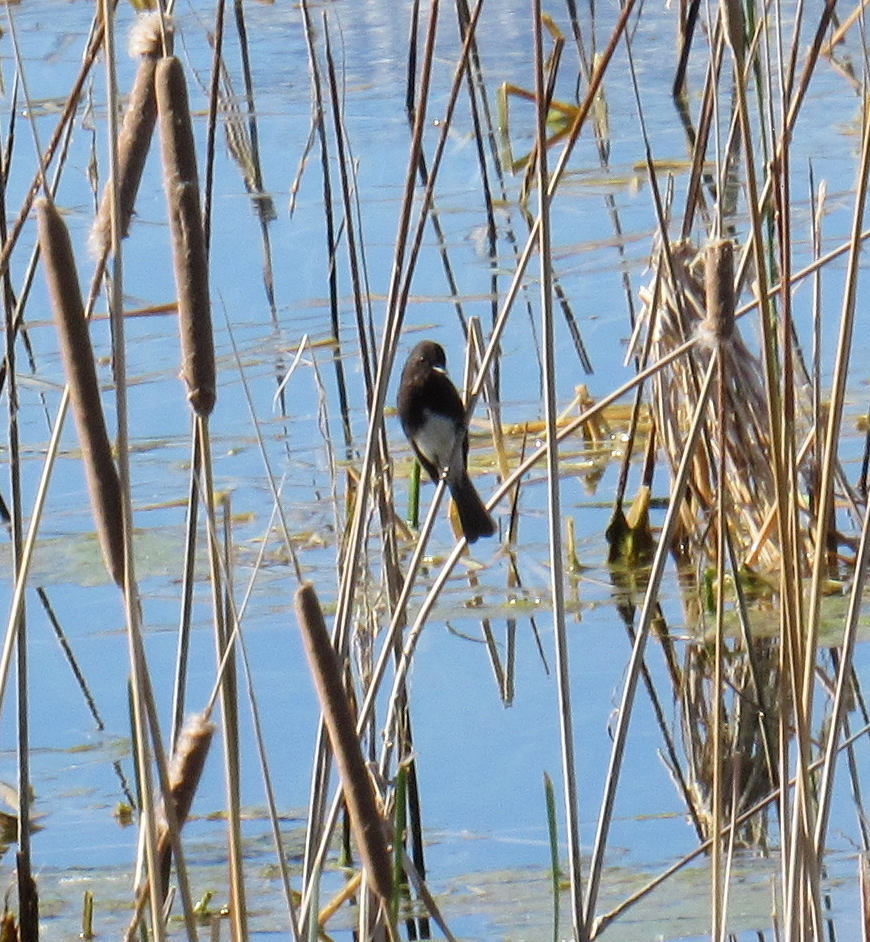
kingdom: Animalia
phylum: Chordata
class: Aves
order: Passeriformes
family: Tyrannidae
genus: Sayornis
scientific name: Sayornis nigricans
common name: Black phoebe
